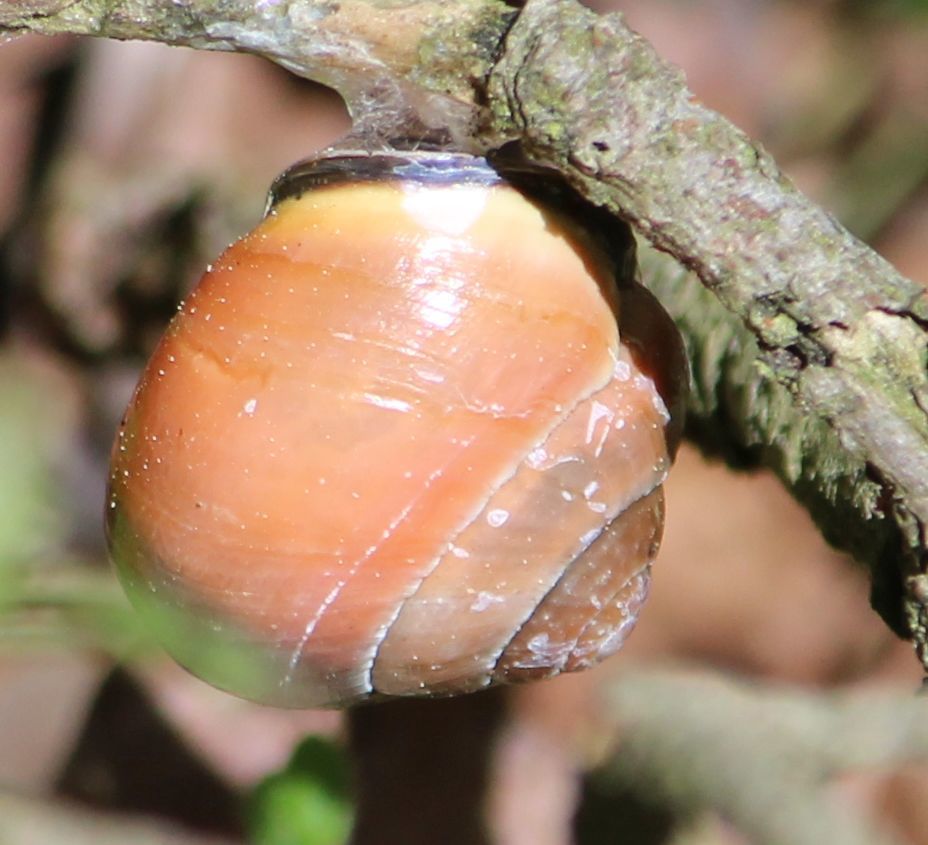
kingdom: Animalia
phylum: Mollusca
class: Gastropoda
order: Stylommatophora
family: Helicidae
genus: Cepaea
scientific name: Cepaea nemoralis
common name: Grovesnail
